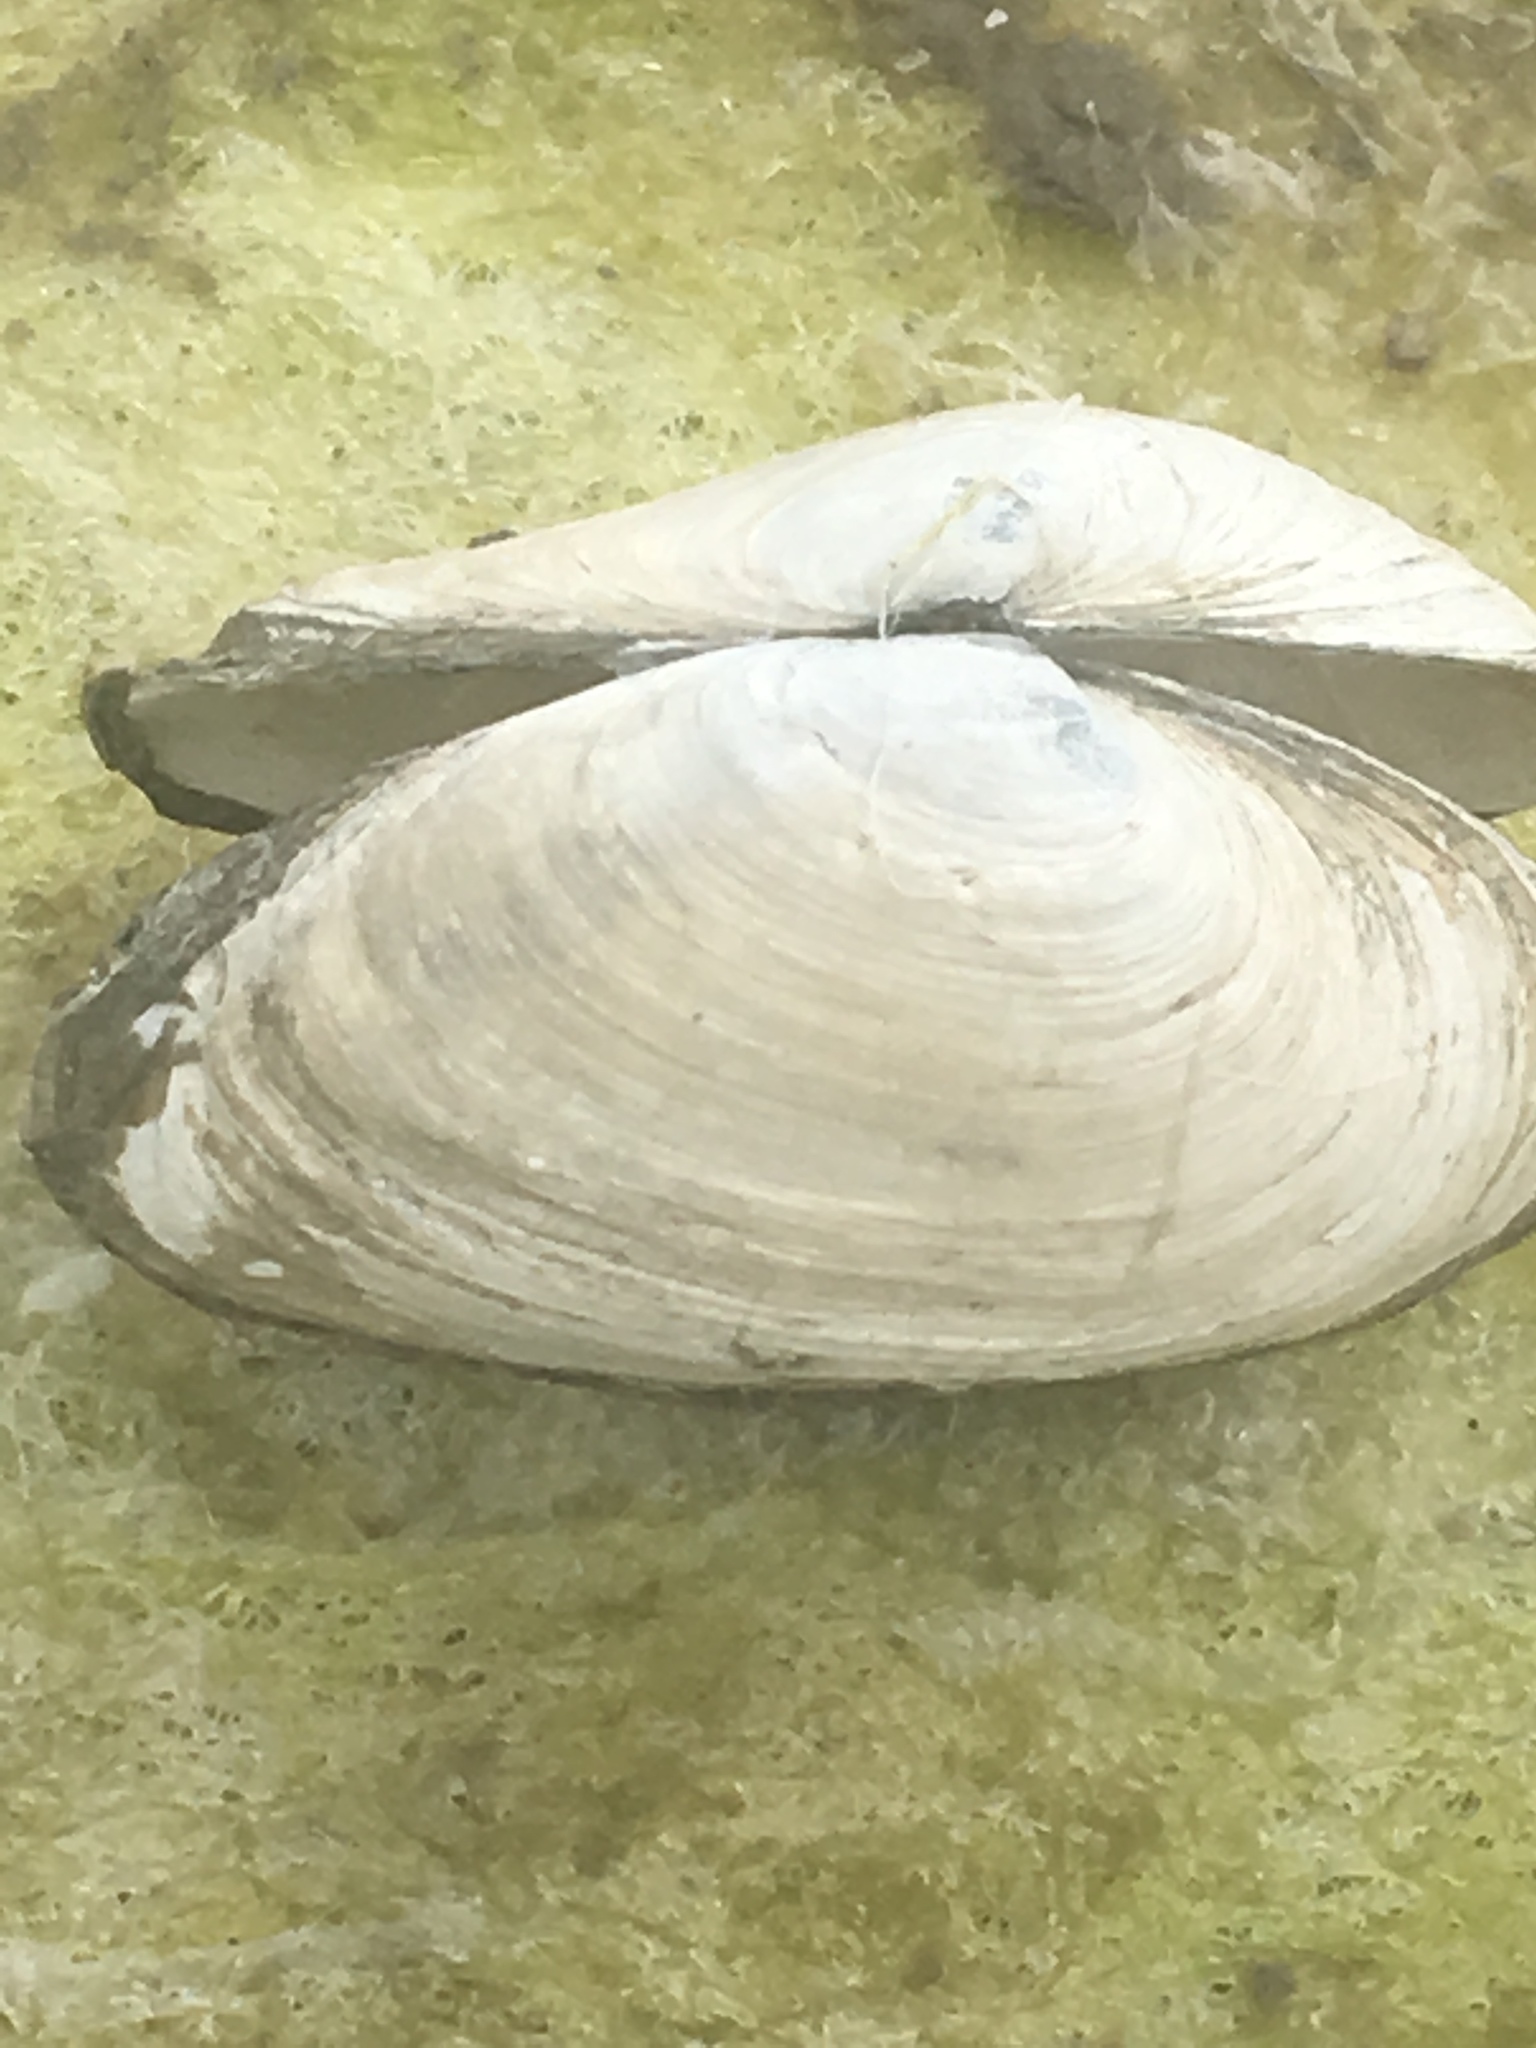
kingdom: Animalia
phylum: Mollusca
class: Bivalvia
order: Myida
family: Myidae
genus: Mya
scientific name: Mya arenaria
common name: Soft-shelled clam
